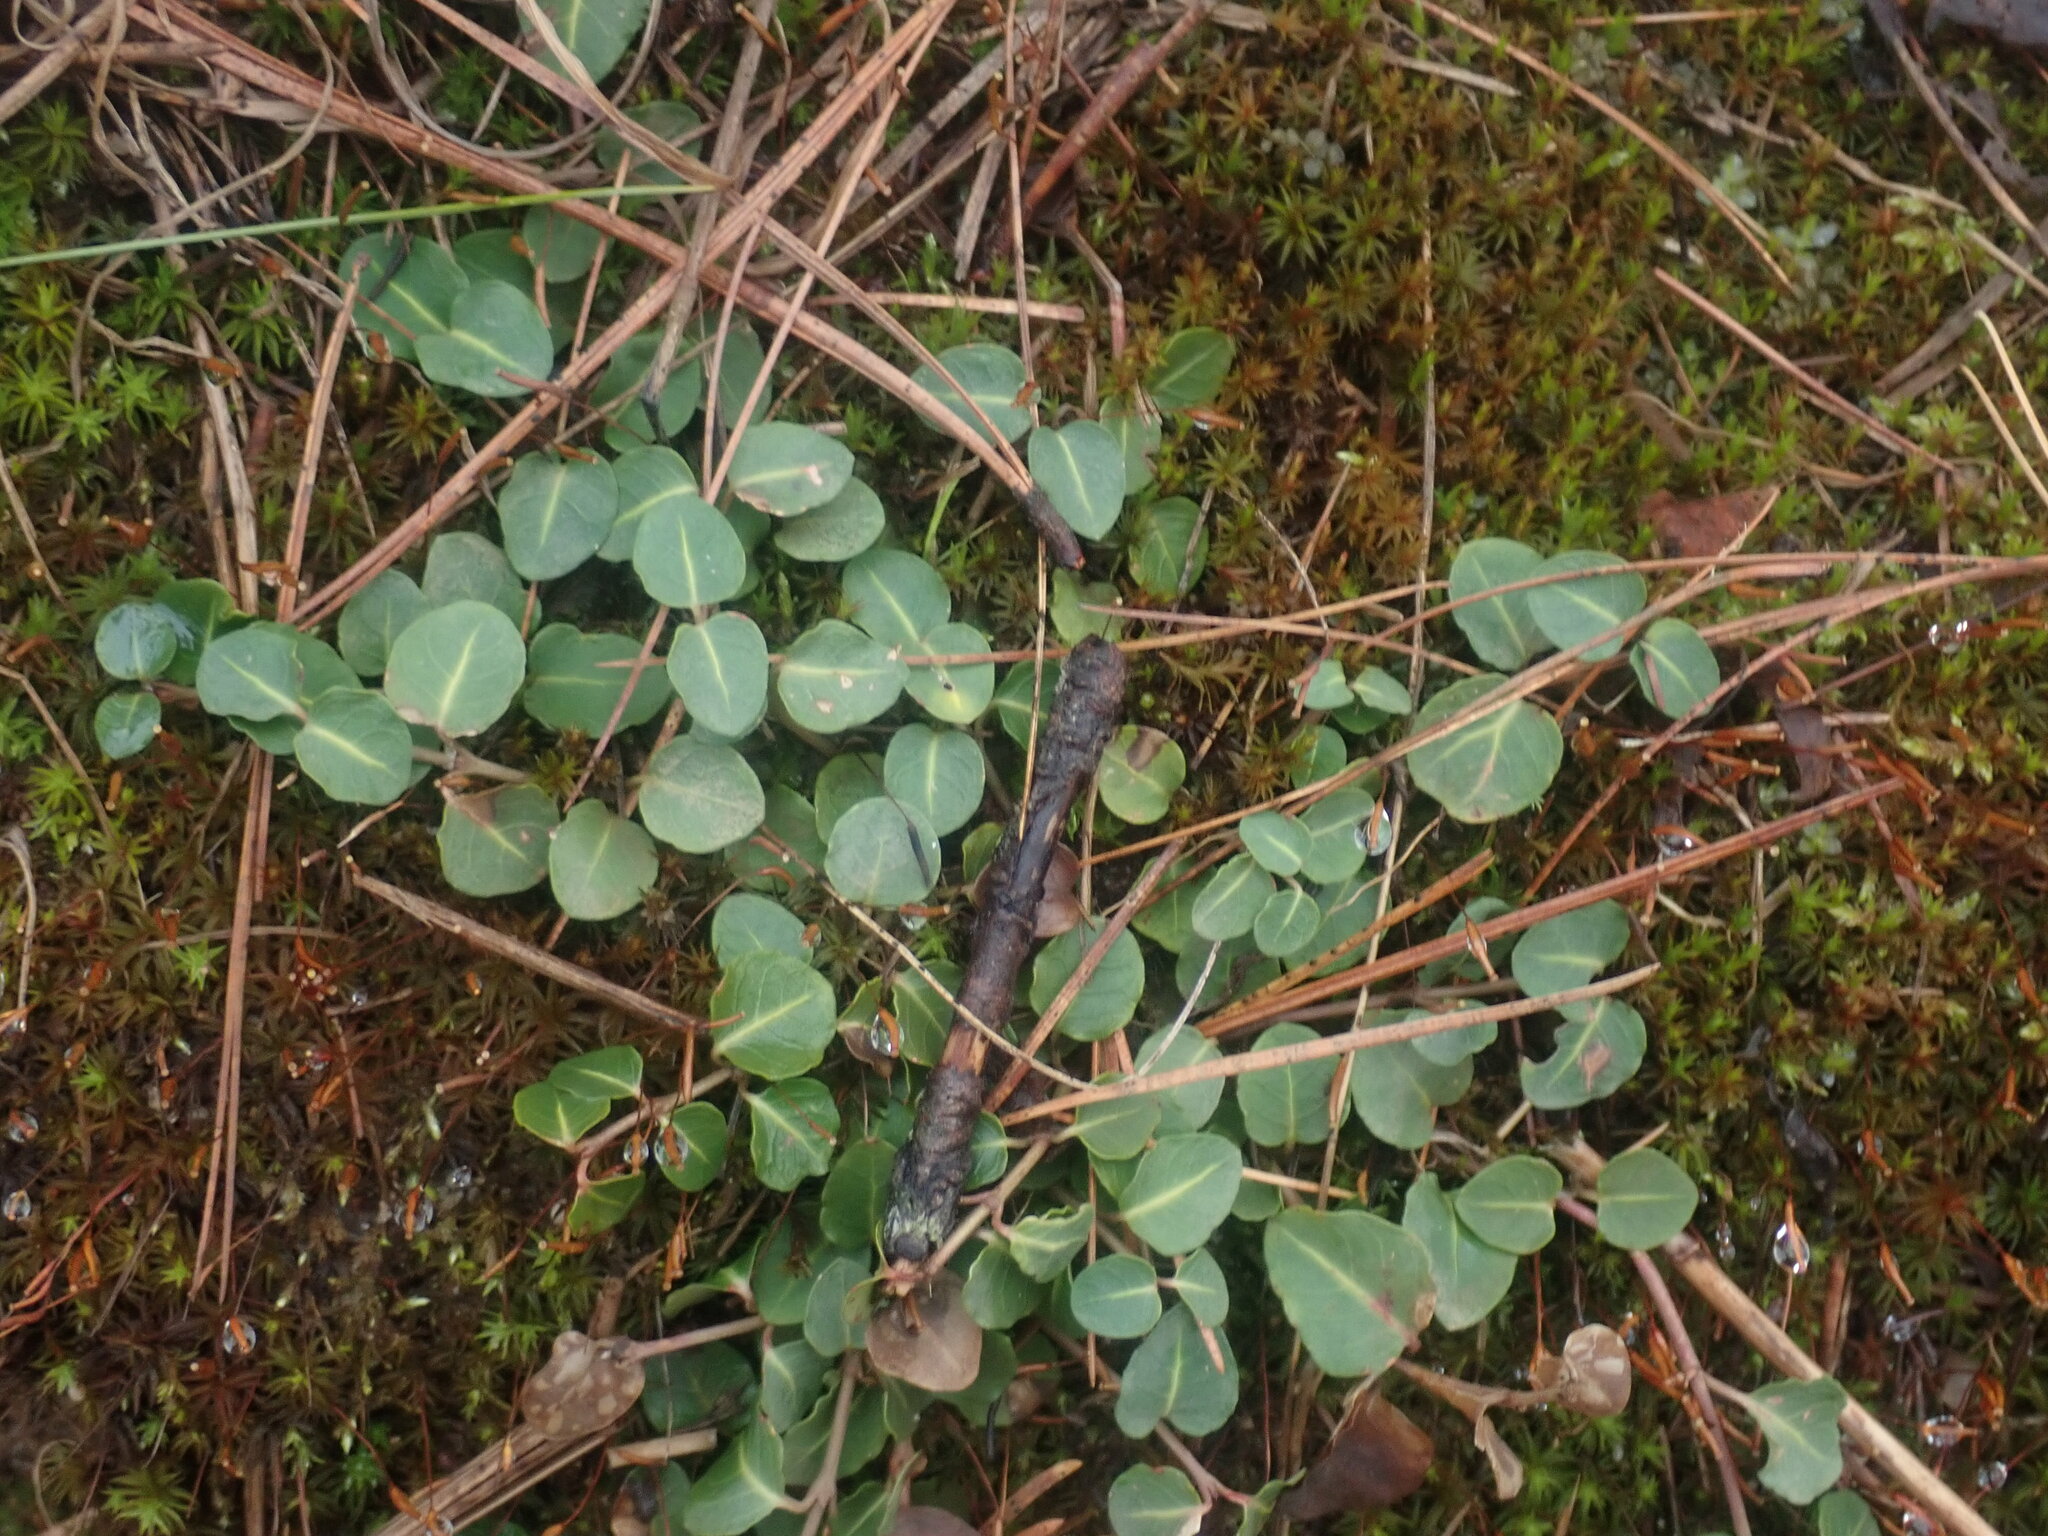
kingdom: Plantae
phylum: Tracheophyta
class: Magnoliopsida
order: Gentianales
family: Rubiaceae
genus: Mitchella
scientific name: Mitchella repens
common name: Partridge-berry
